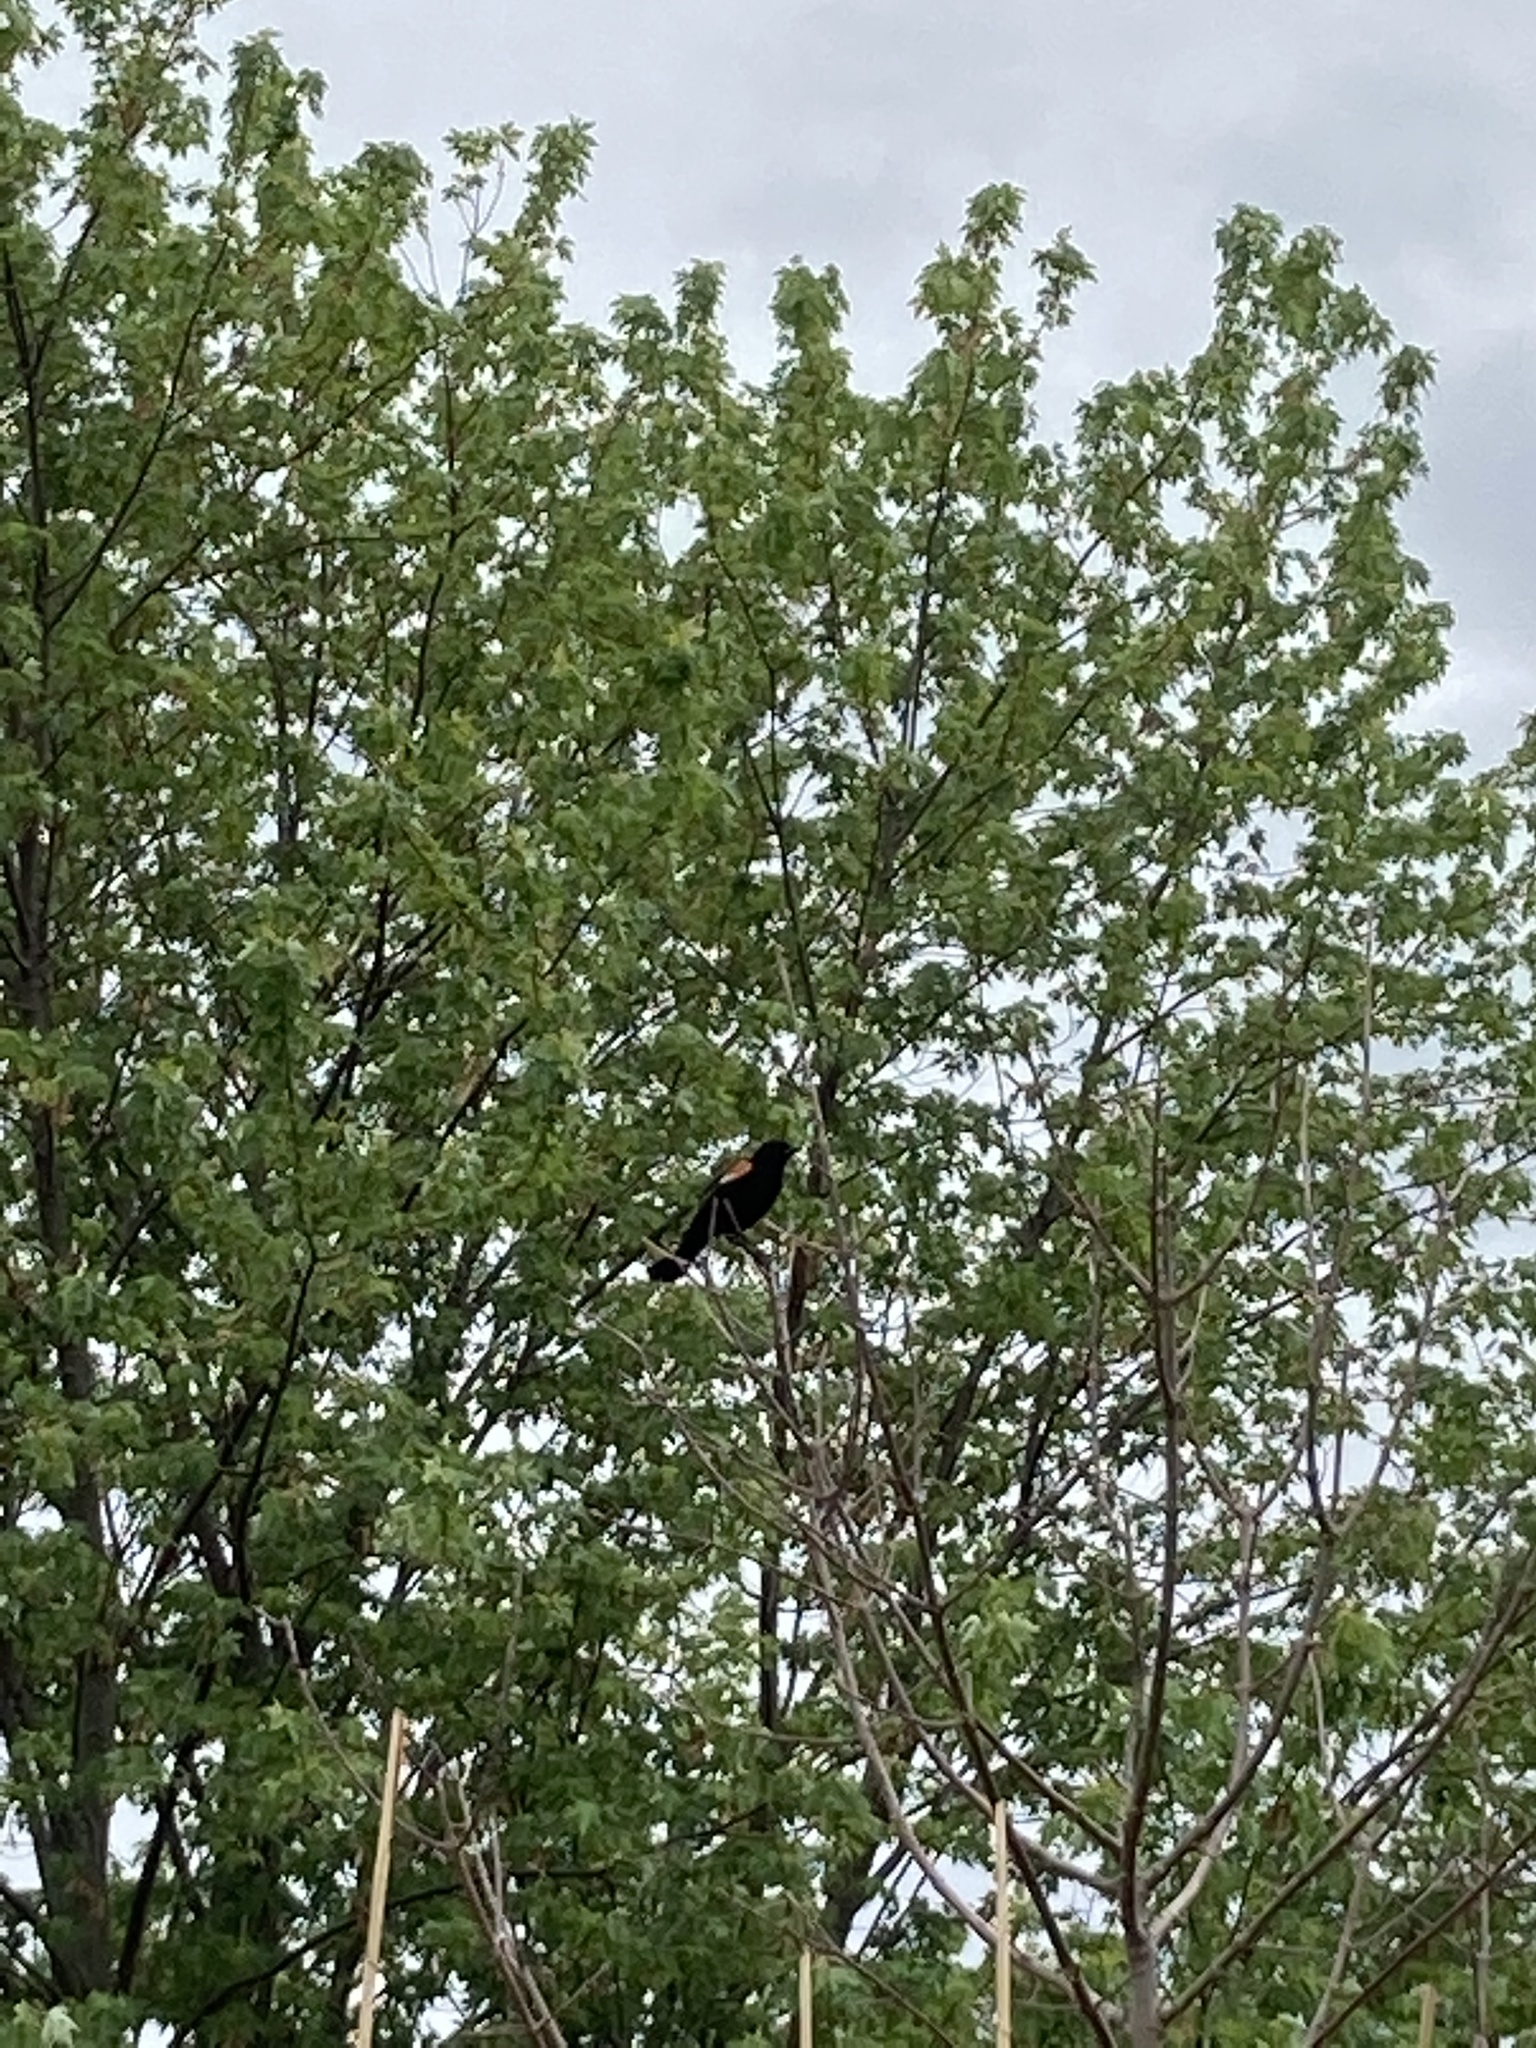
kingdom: Animalia
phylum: Chordata
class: Aves
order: Passeriformes
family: Icteridae
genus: Agelaius
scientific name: Agelaius phoeniceus
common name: Red-winged blackbird
